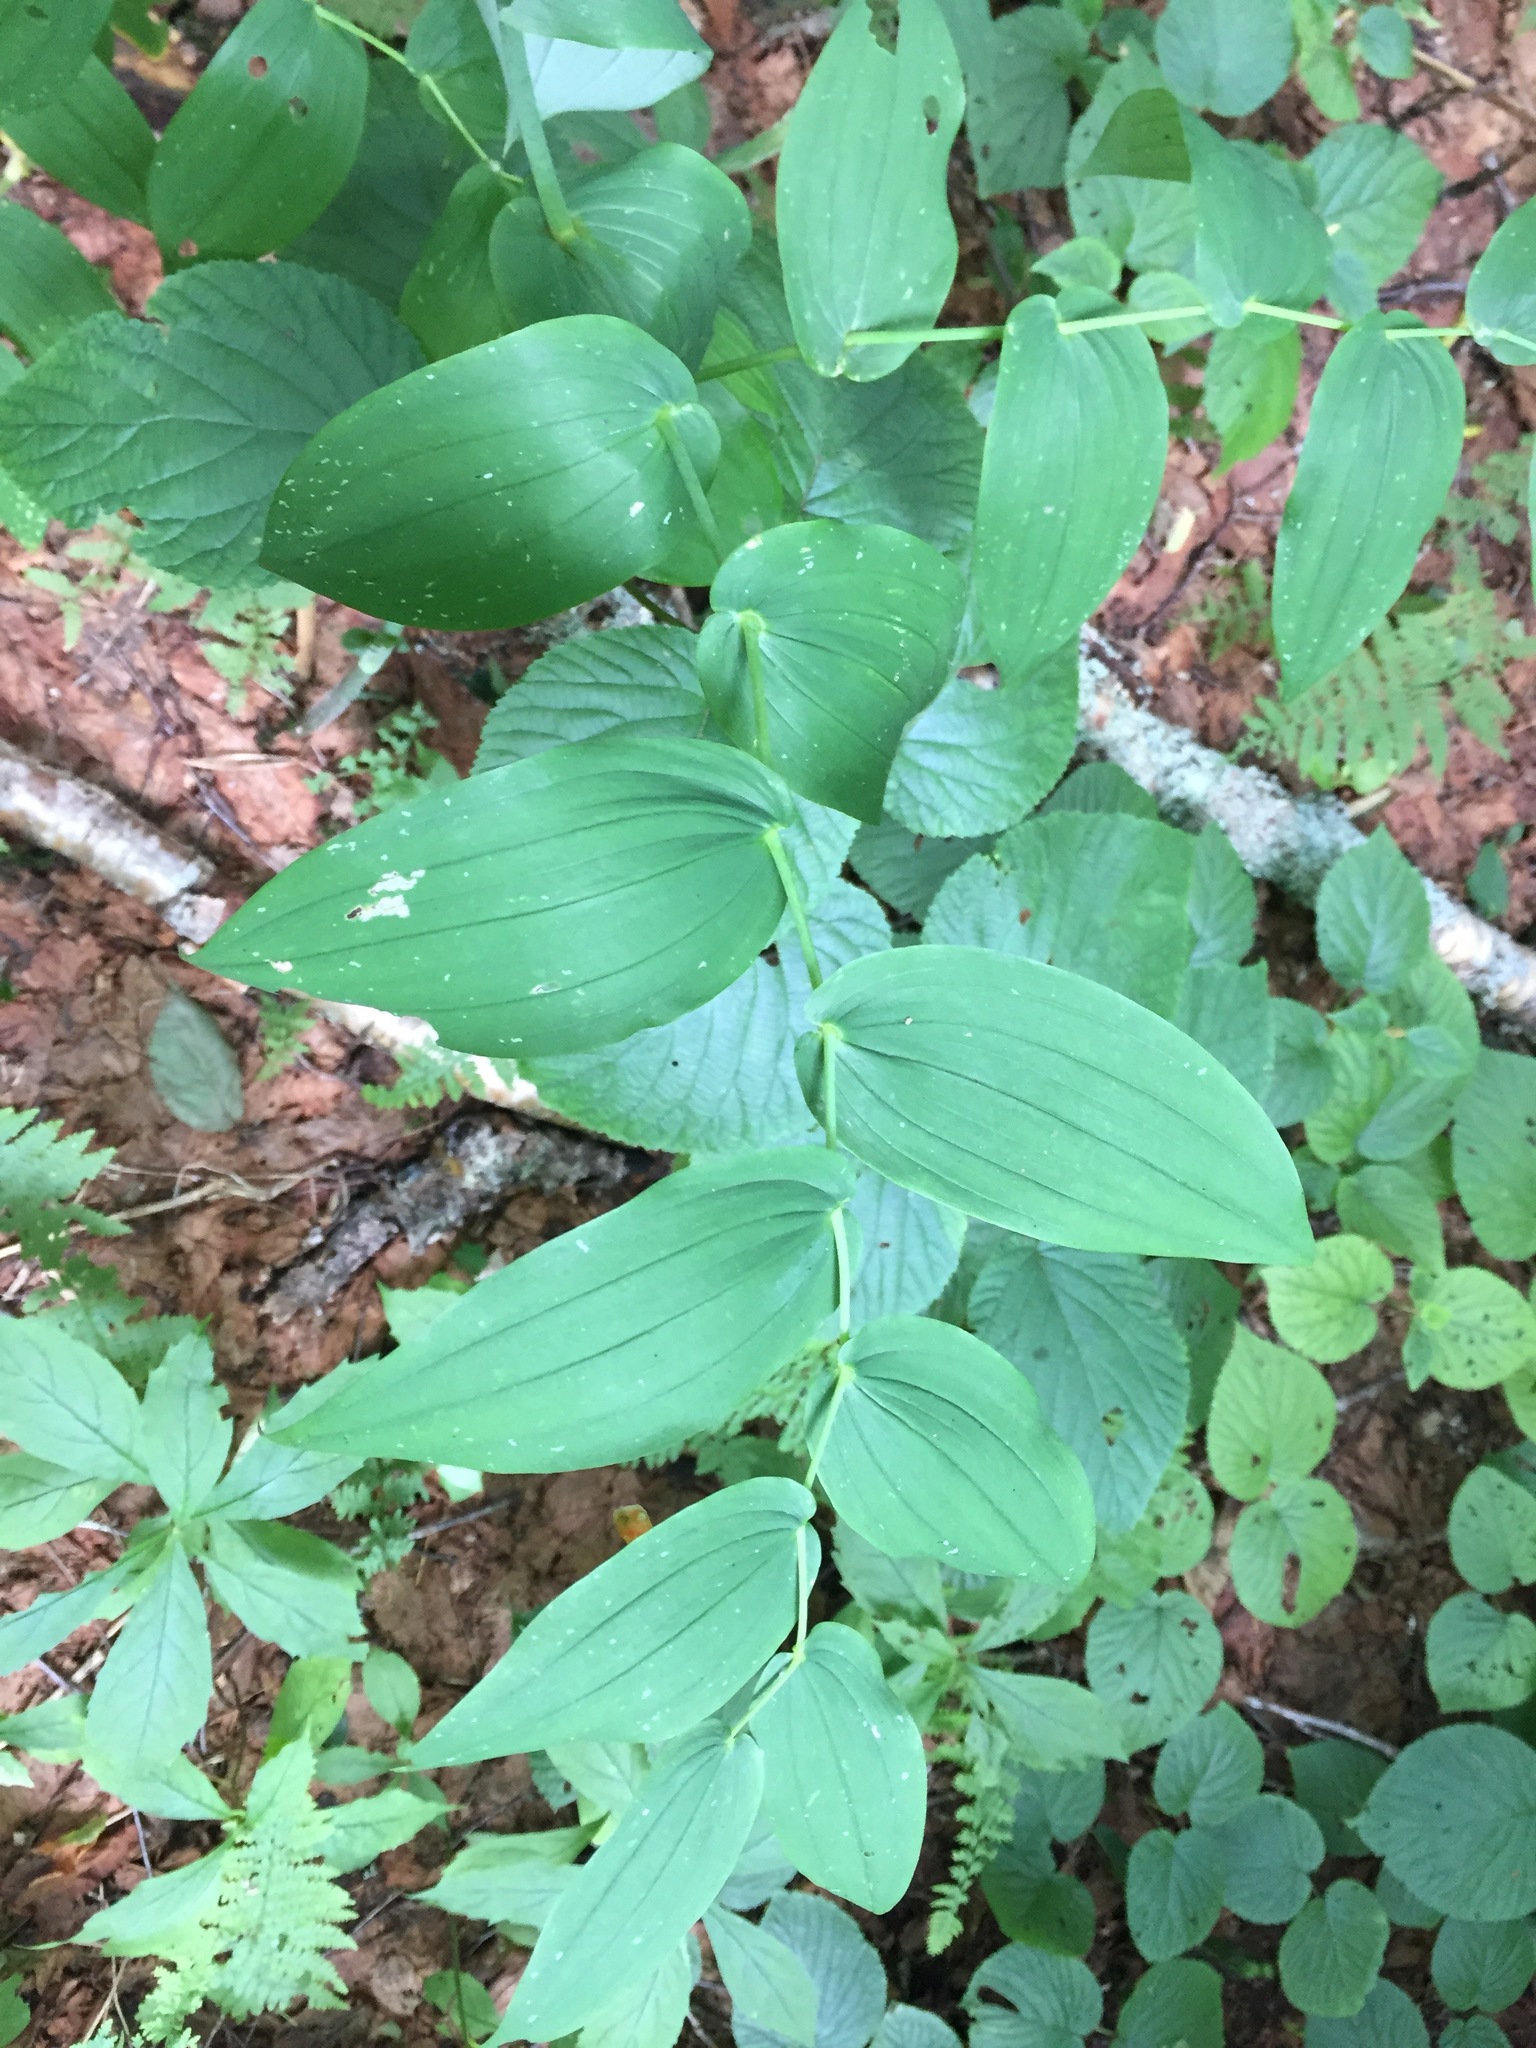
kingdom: Plantae
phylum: Tracheophyta
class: Liliopsida
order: Liliales
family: Liliaceae
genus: Streptopus
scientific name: Streptopus amplexifolius
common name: Clasp twisted stalk
